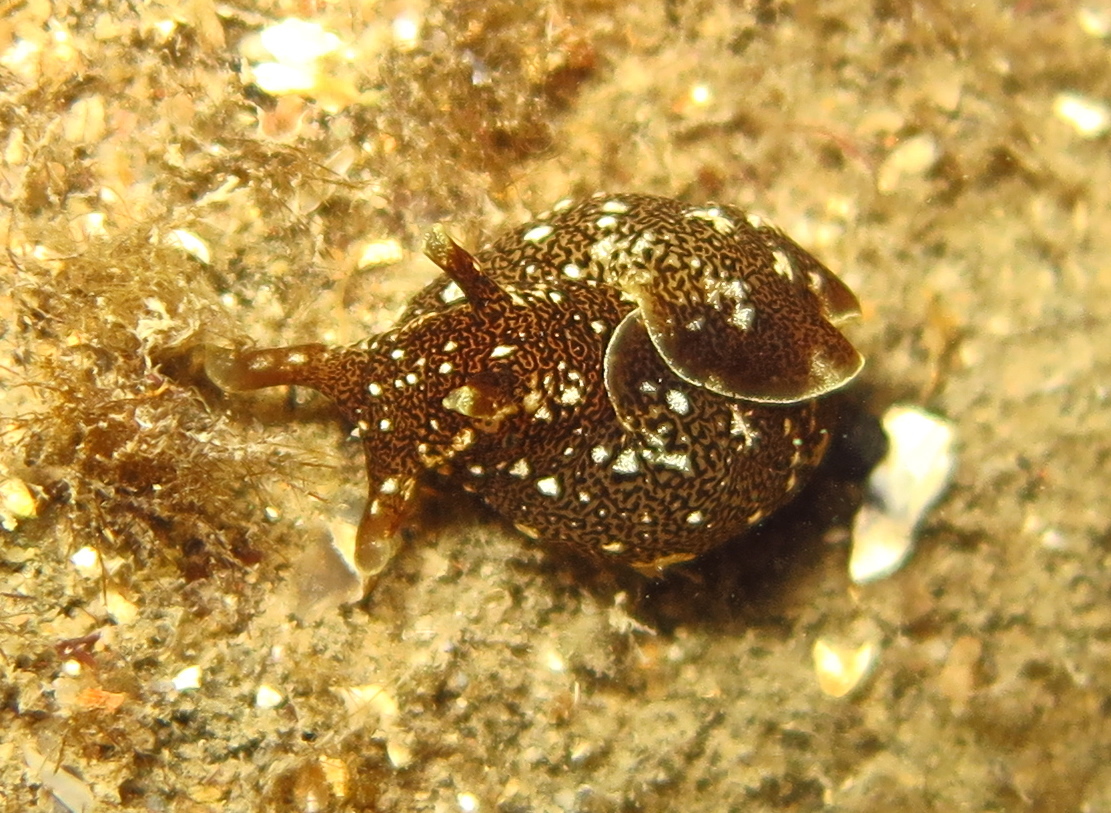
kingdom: Animalia
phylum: Mollusca
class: Gastropoda
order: Aplysiida
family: Aplysiidae
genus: Aplysia
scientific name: Aplysia punctata
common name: Common sea hare
